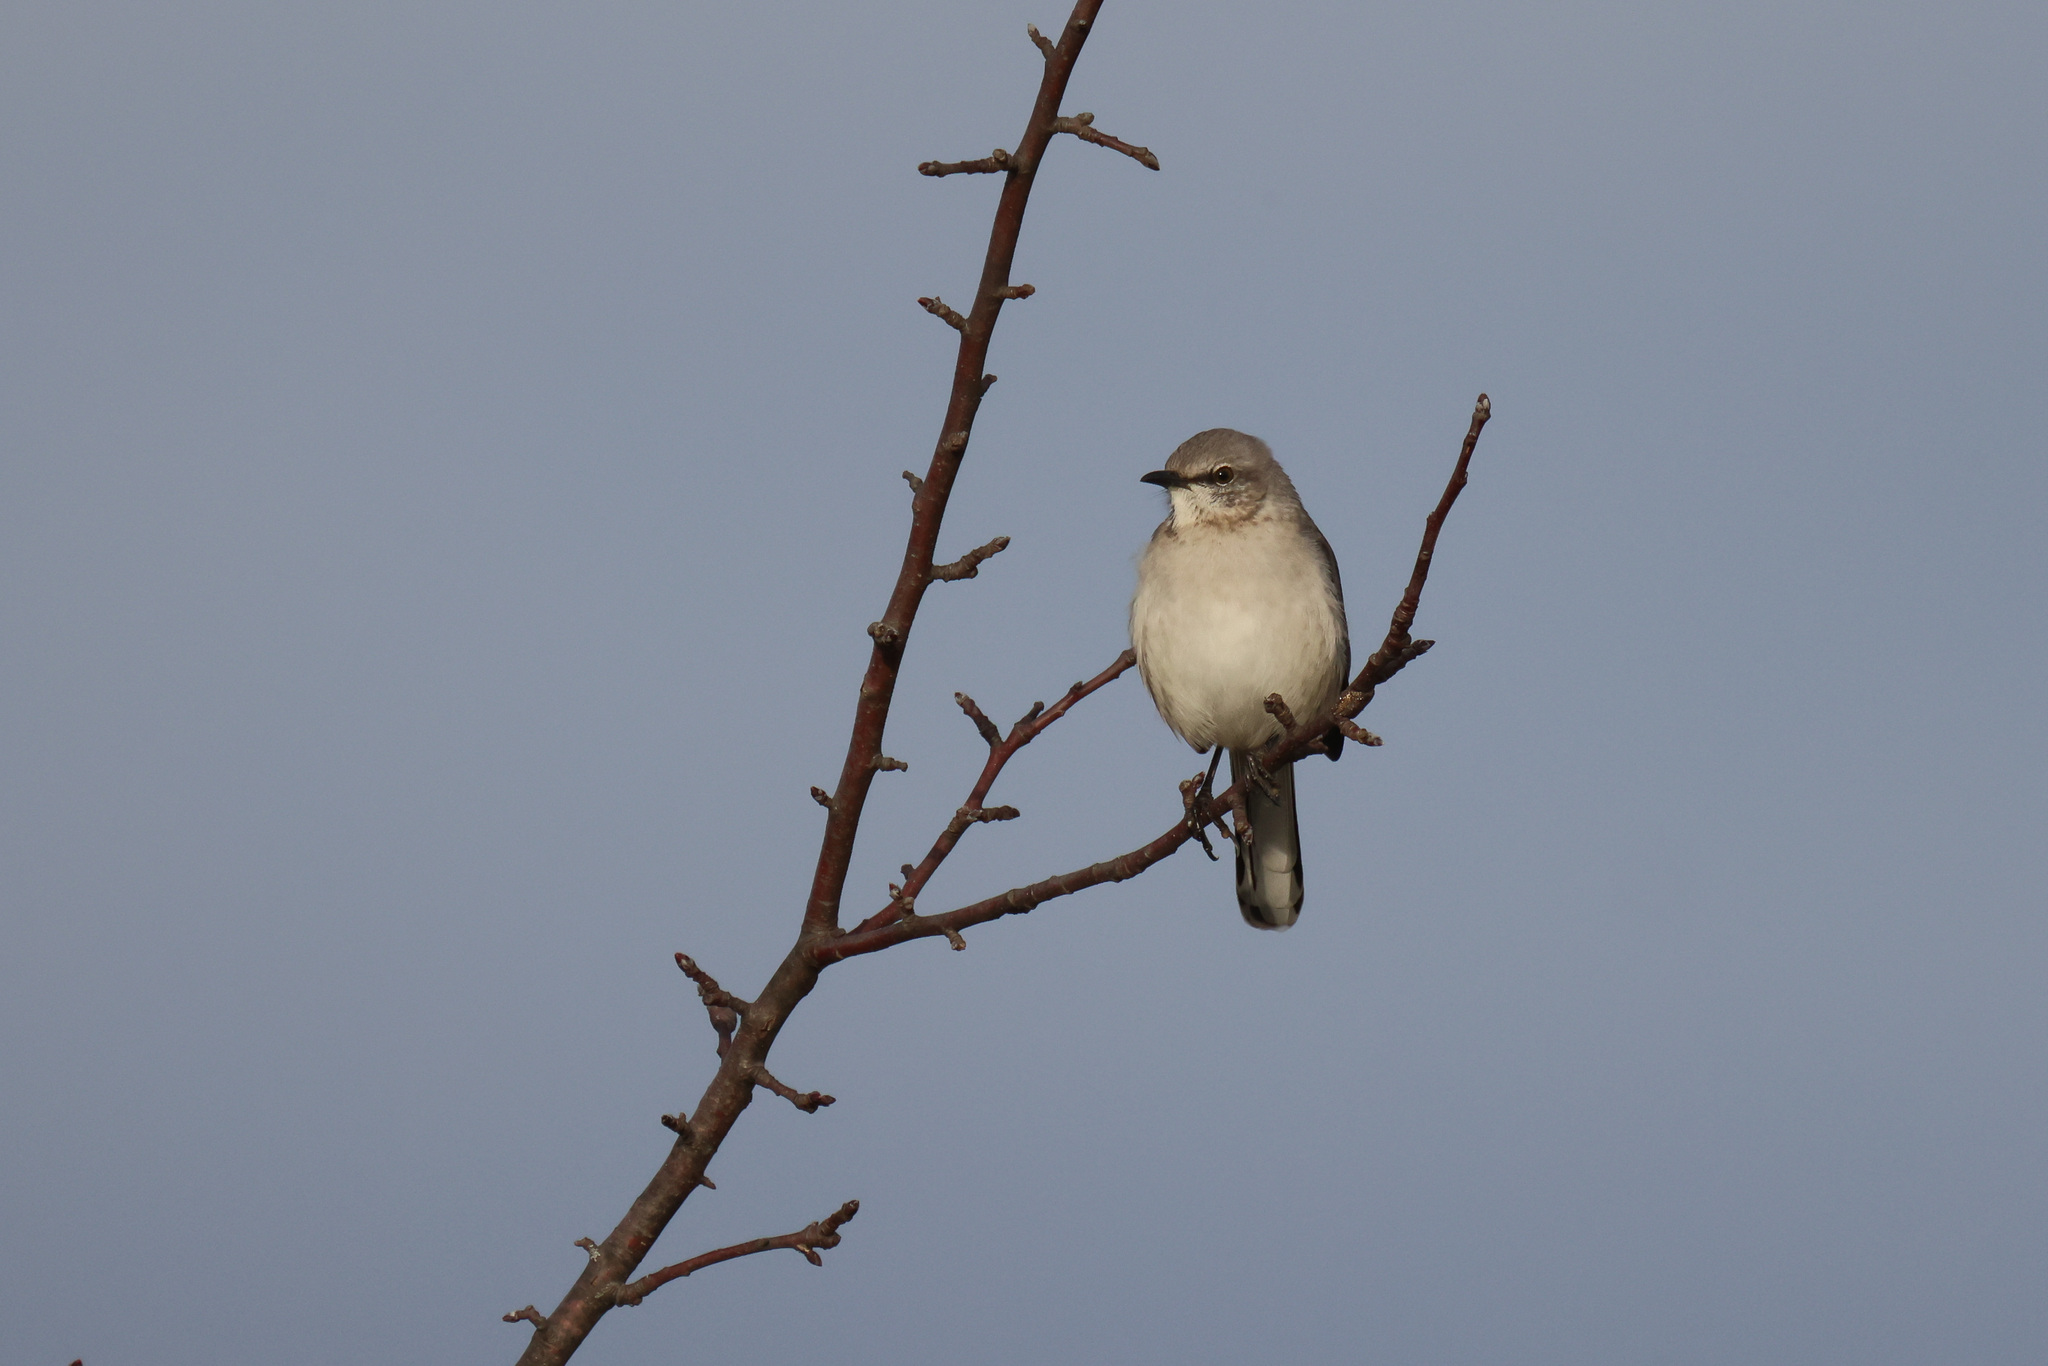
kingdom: Animalia
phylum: Chordata
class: Aves
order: Passeriformes
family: Mimidae
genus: Mimus
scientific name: Mimus polyglottos
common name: Northern mockingbird
